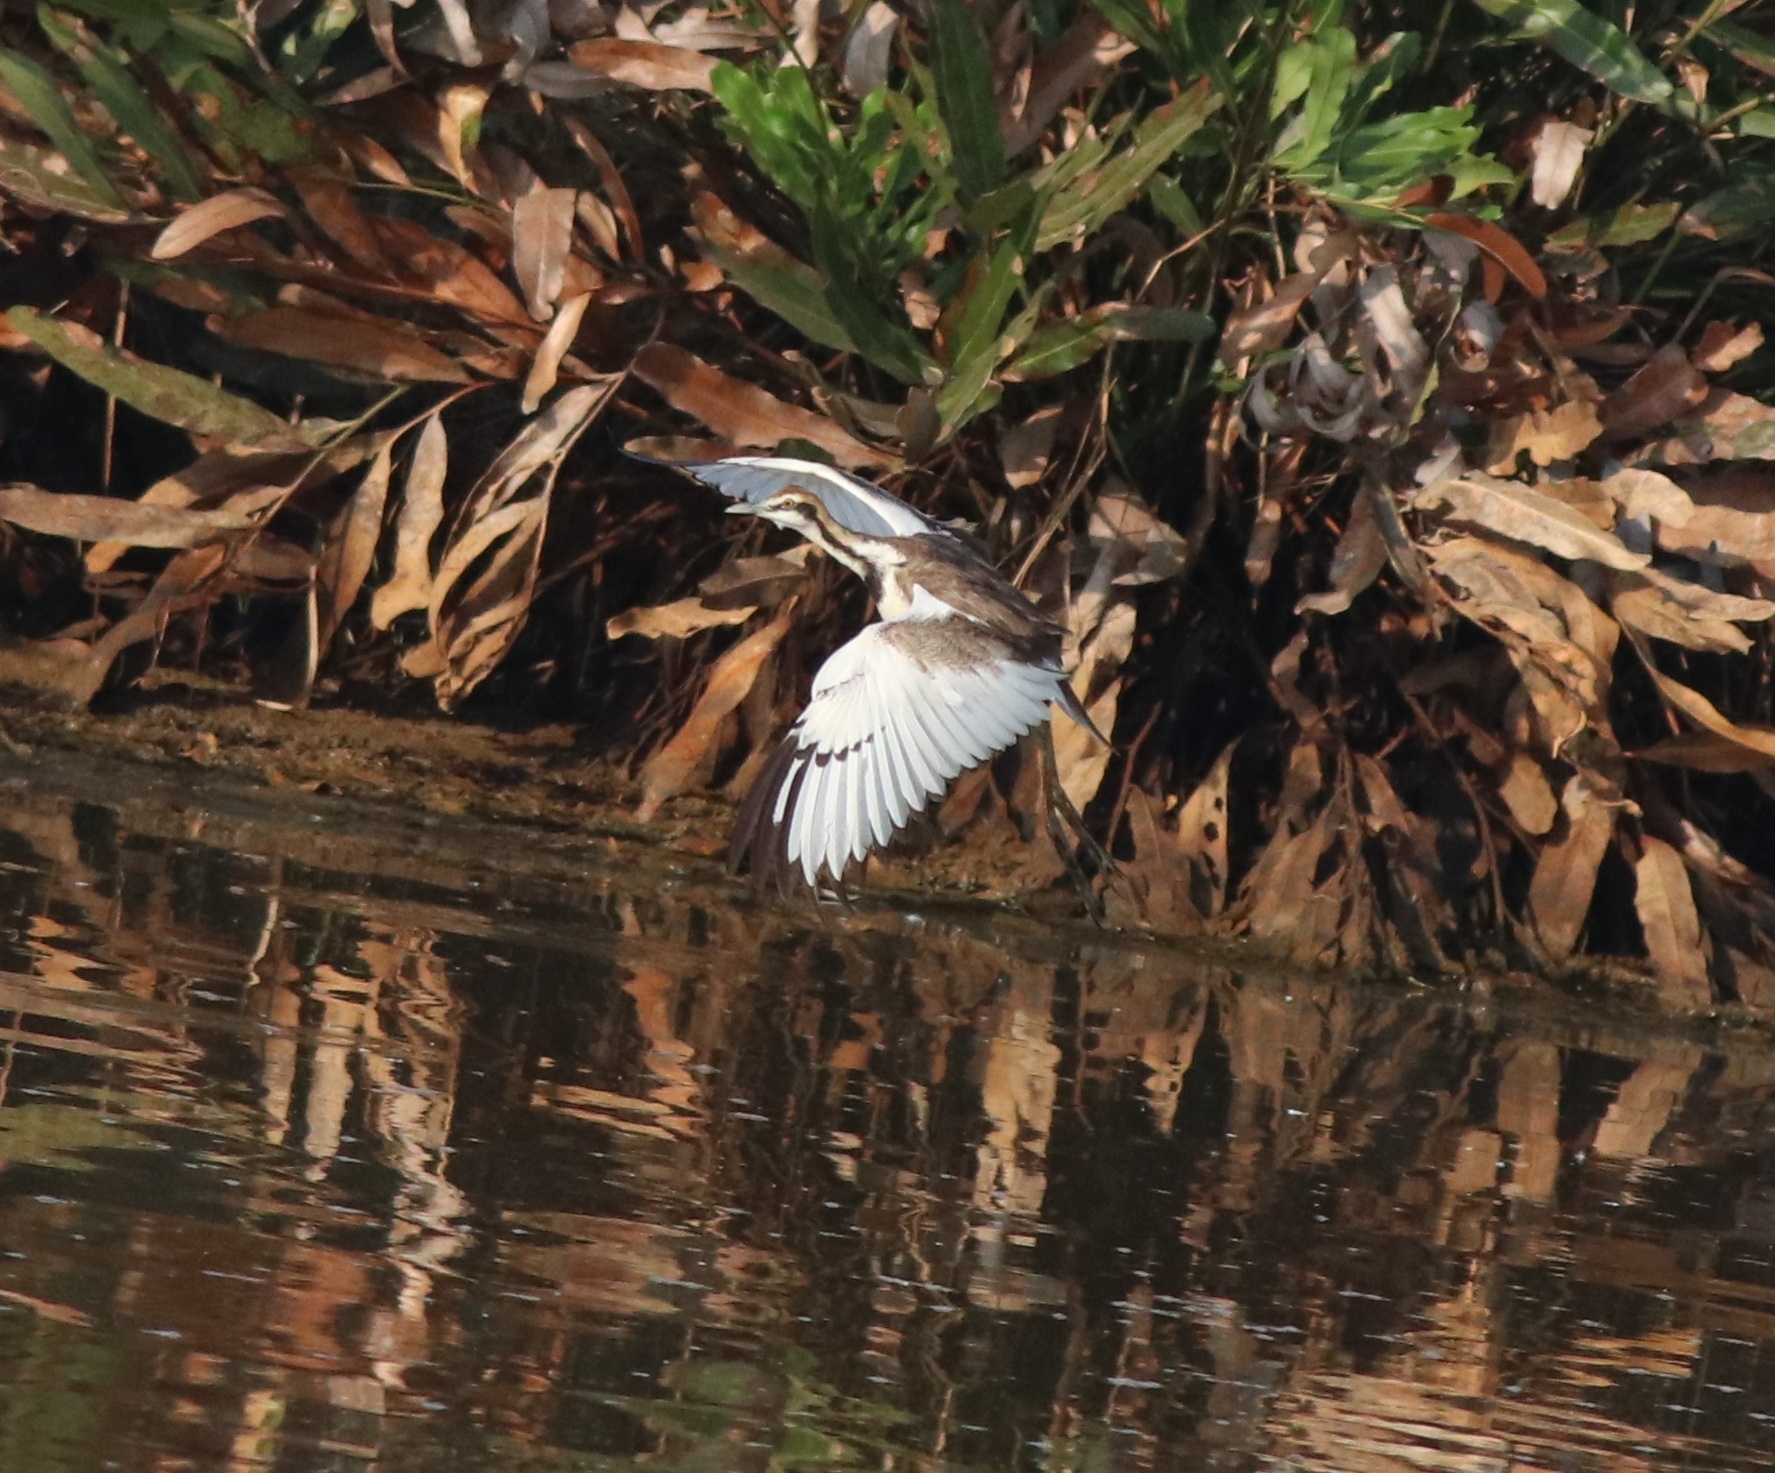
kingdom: Animalia
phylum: Chordata
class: Aves
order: Charadriiformes
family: Jacanidae
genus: Hydrophasianus
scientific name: Hydrophasianus chirurgus
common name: Pheasant-tailed jacana
